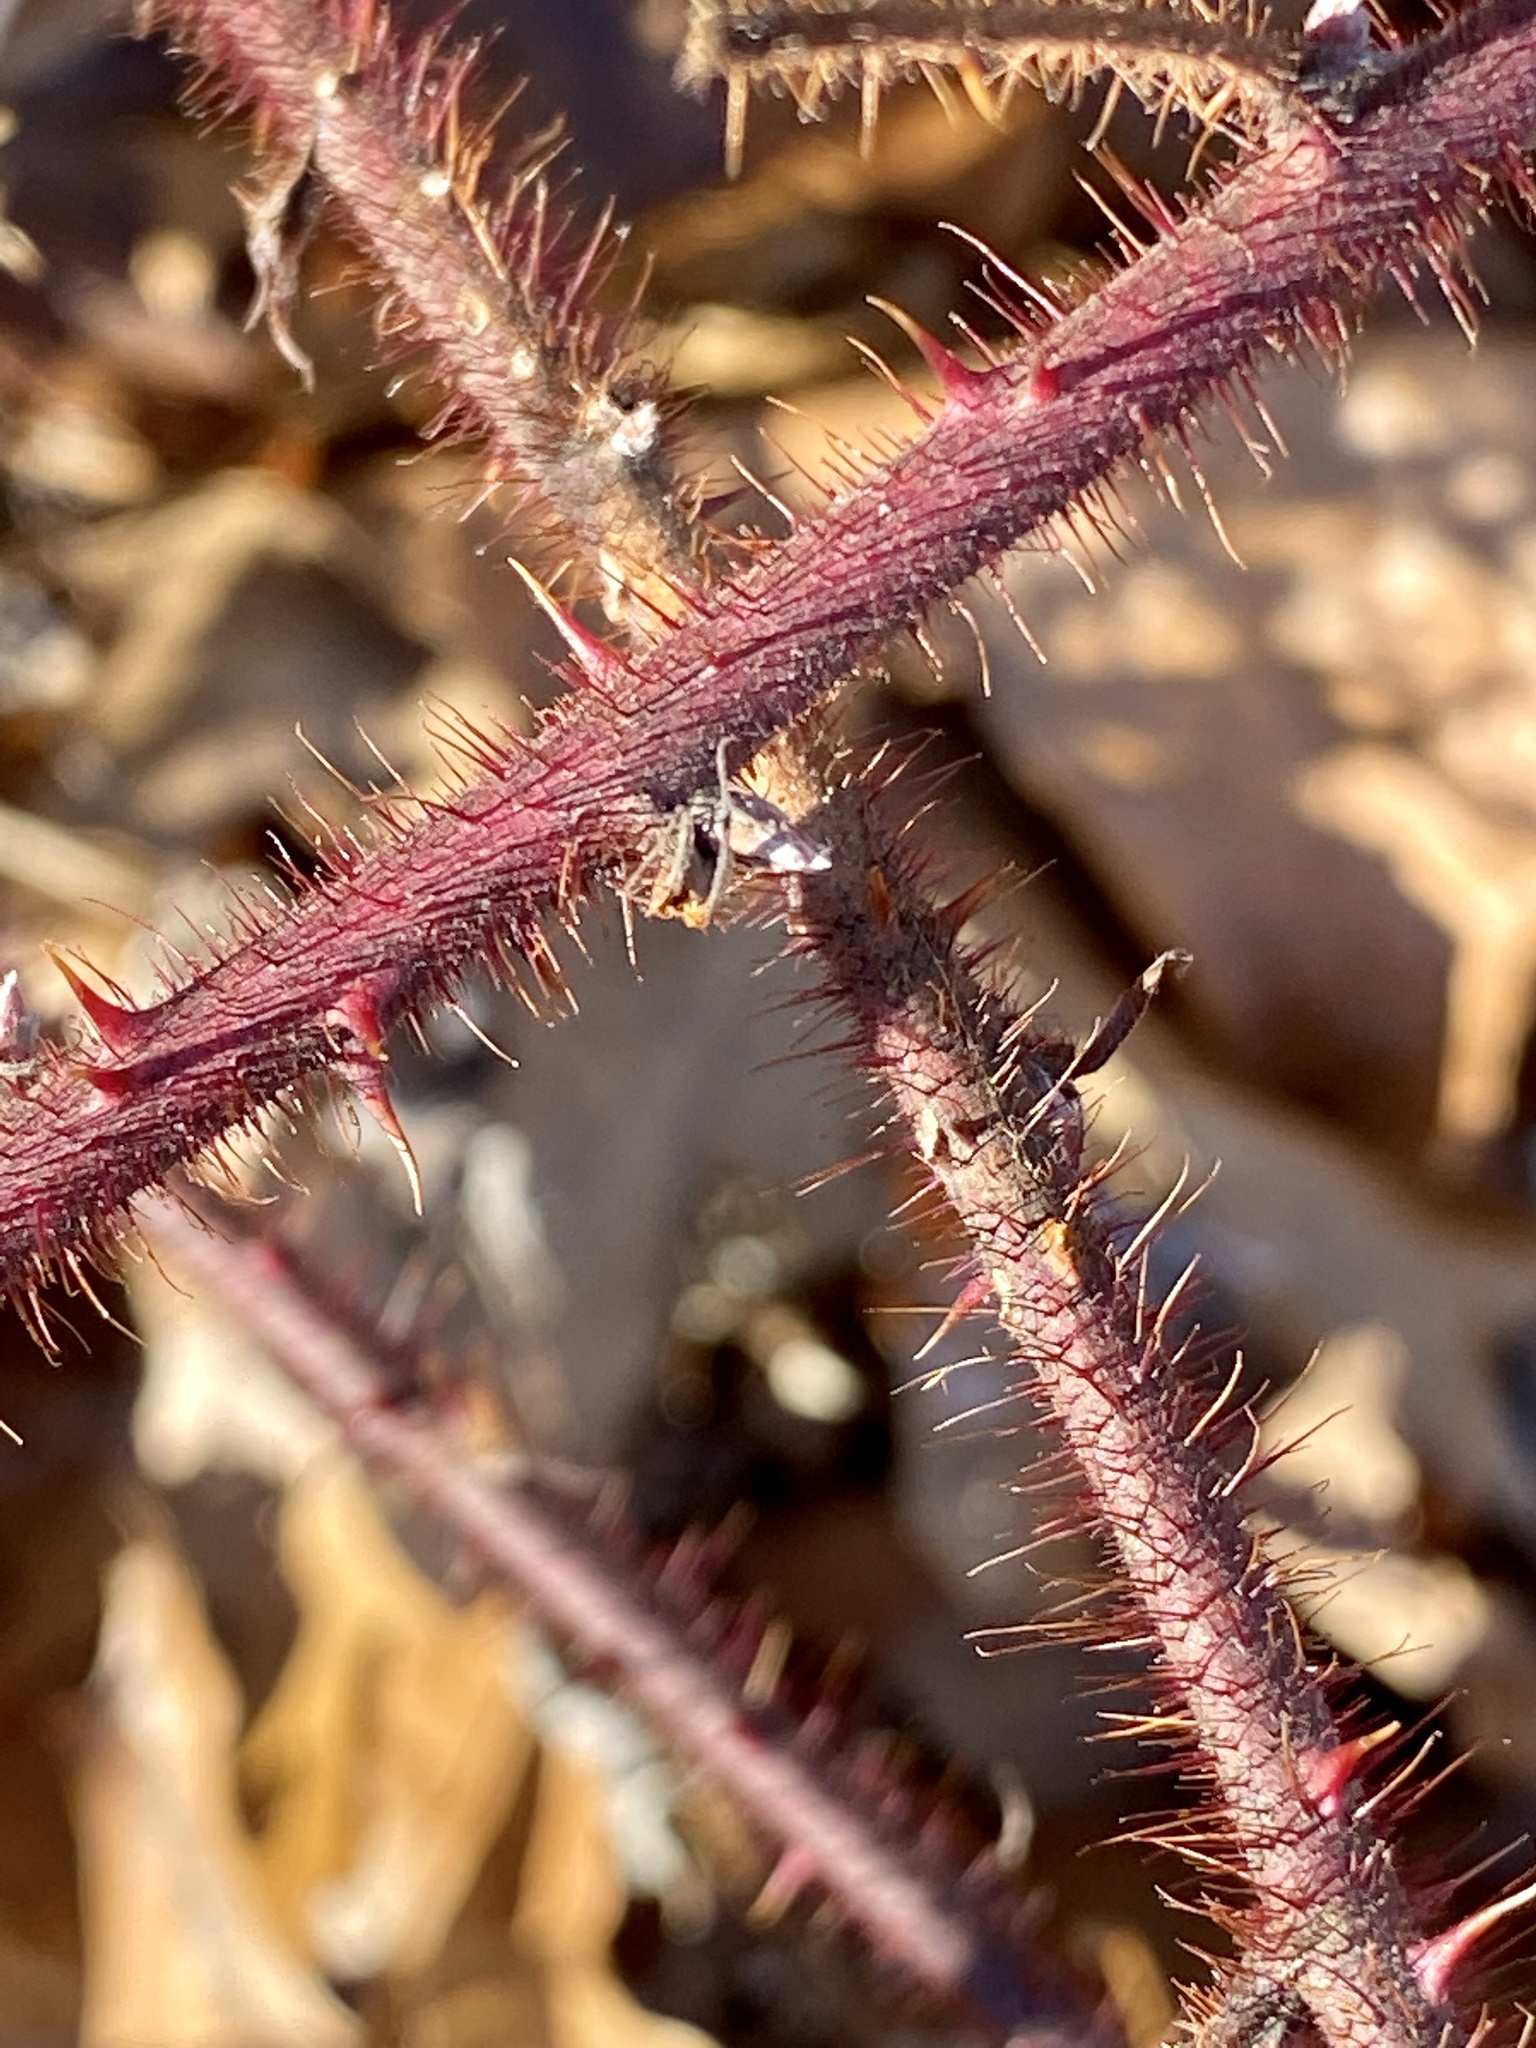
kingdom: Plantae
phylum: Tracheophyta
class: Magnoliopsida
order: Rosales
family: Rosaceae
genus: Rubus
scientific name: Rubus phoenicolasius
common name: Japanese wineberry
